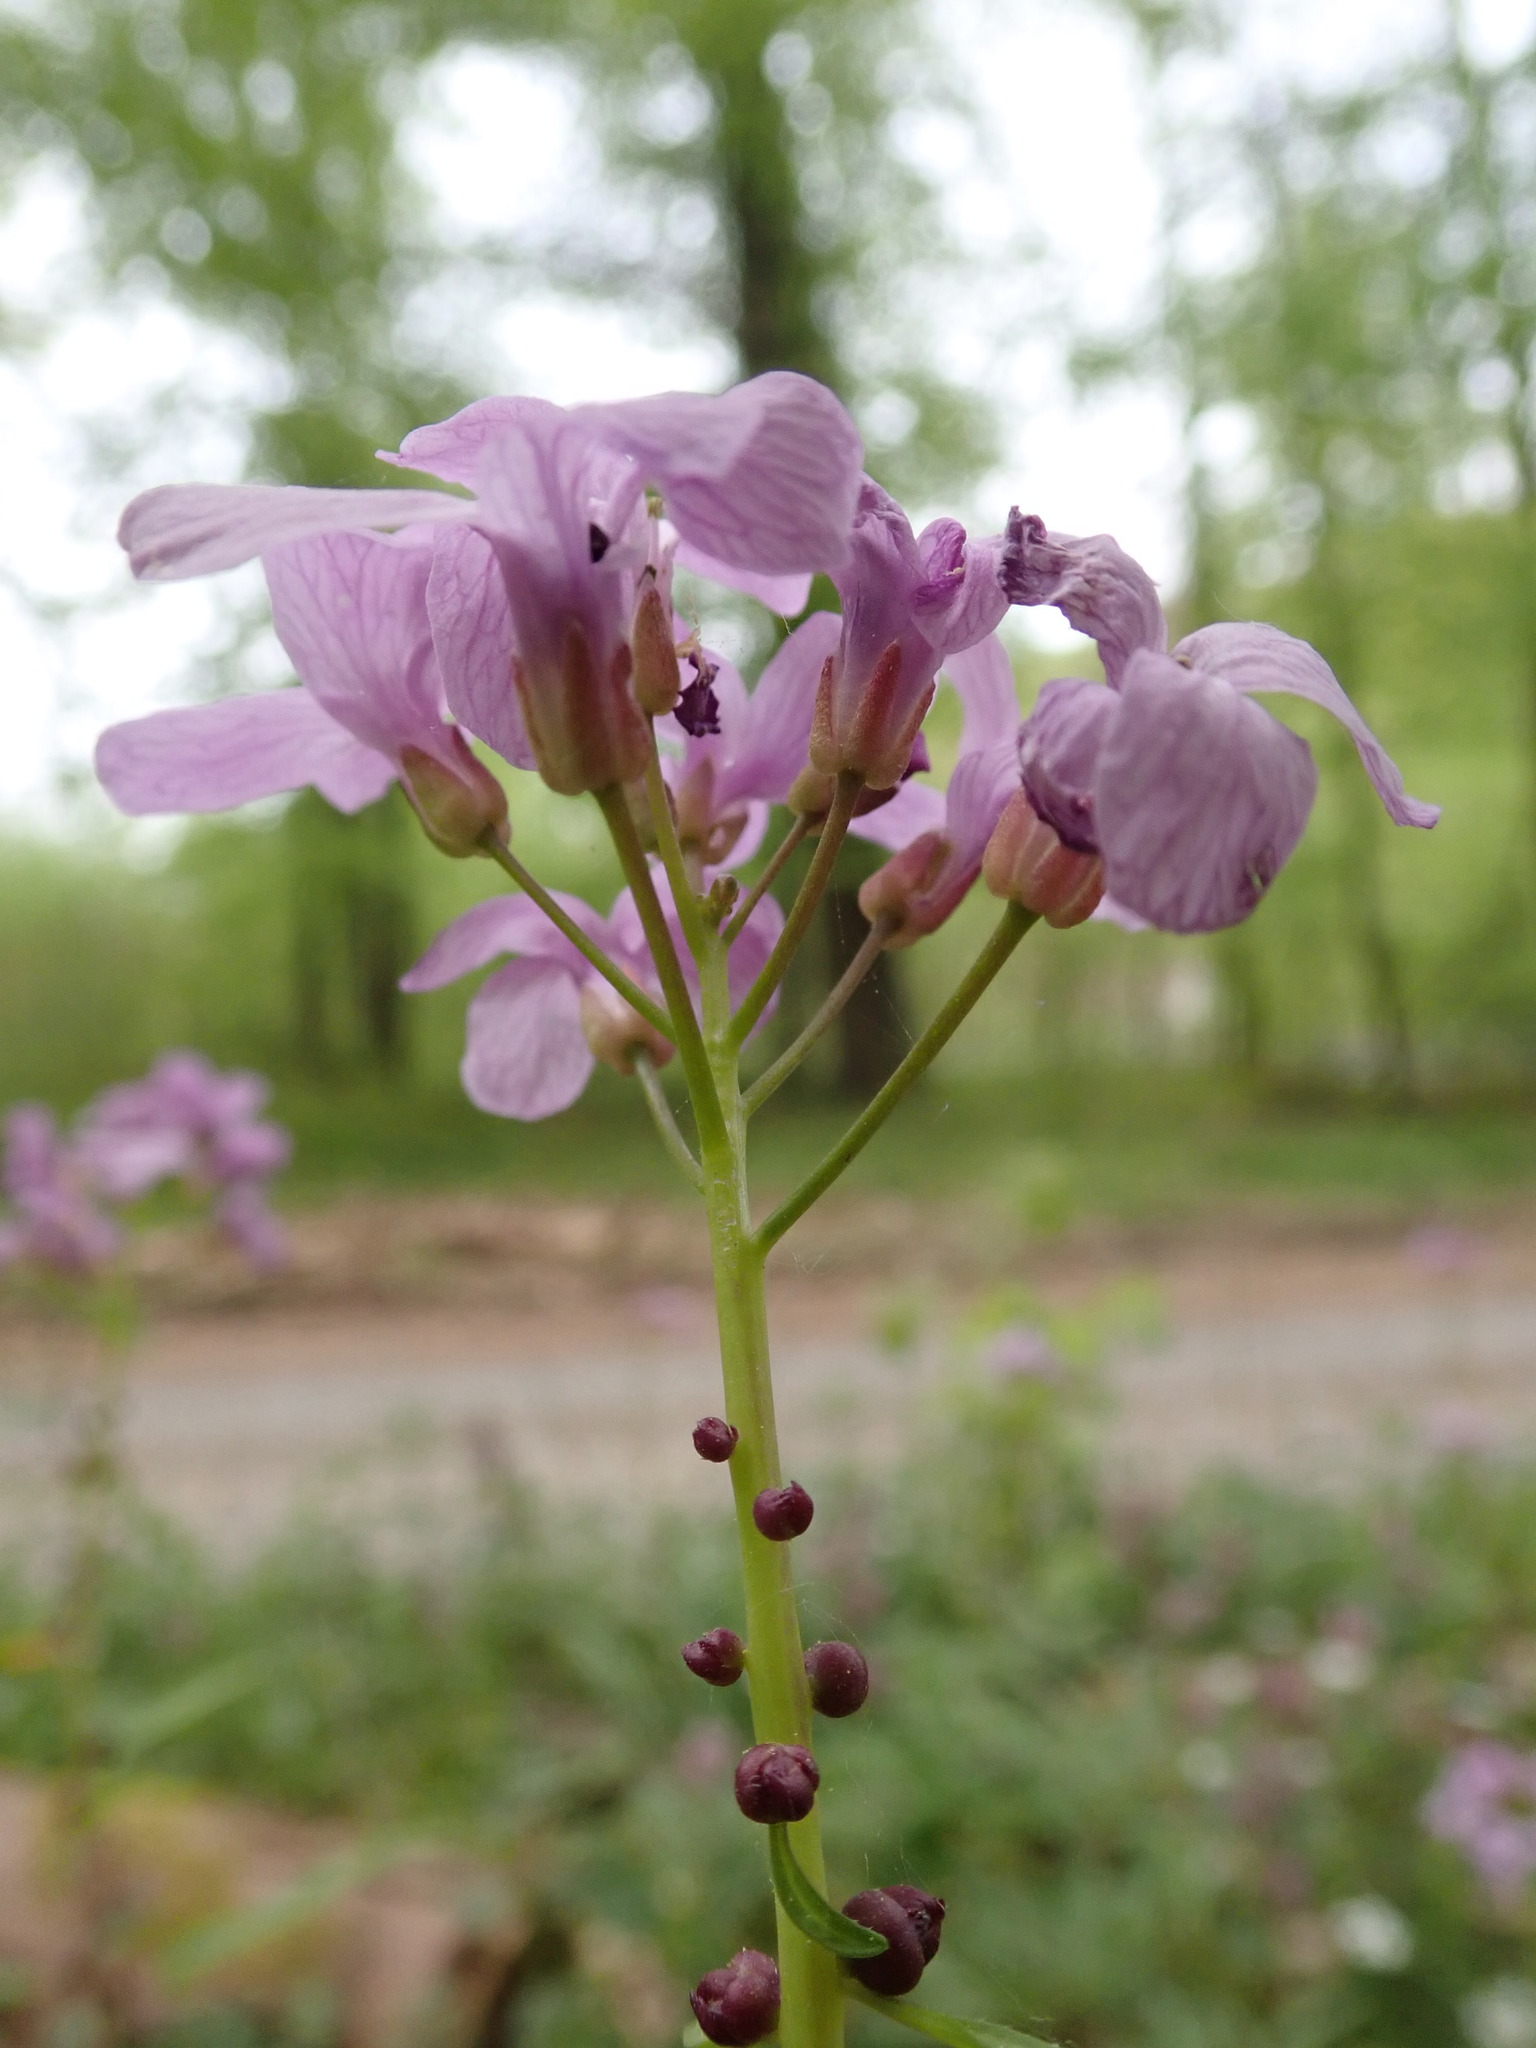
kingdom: Plantae
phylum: Tracheophyta
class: Magnoliopsida
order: Brassicales
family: Brassicaceae
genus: Cardamine
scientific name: Cardamine bulbifera
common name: Coralroot bittercress
